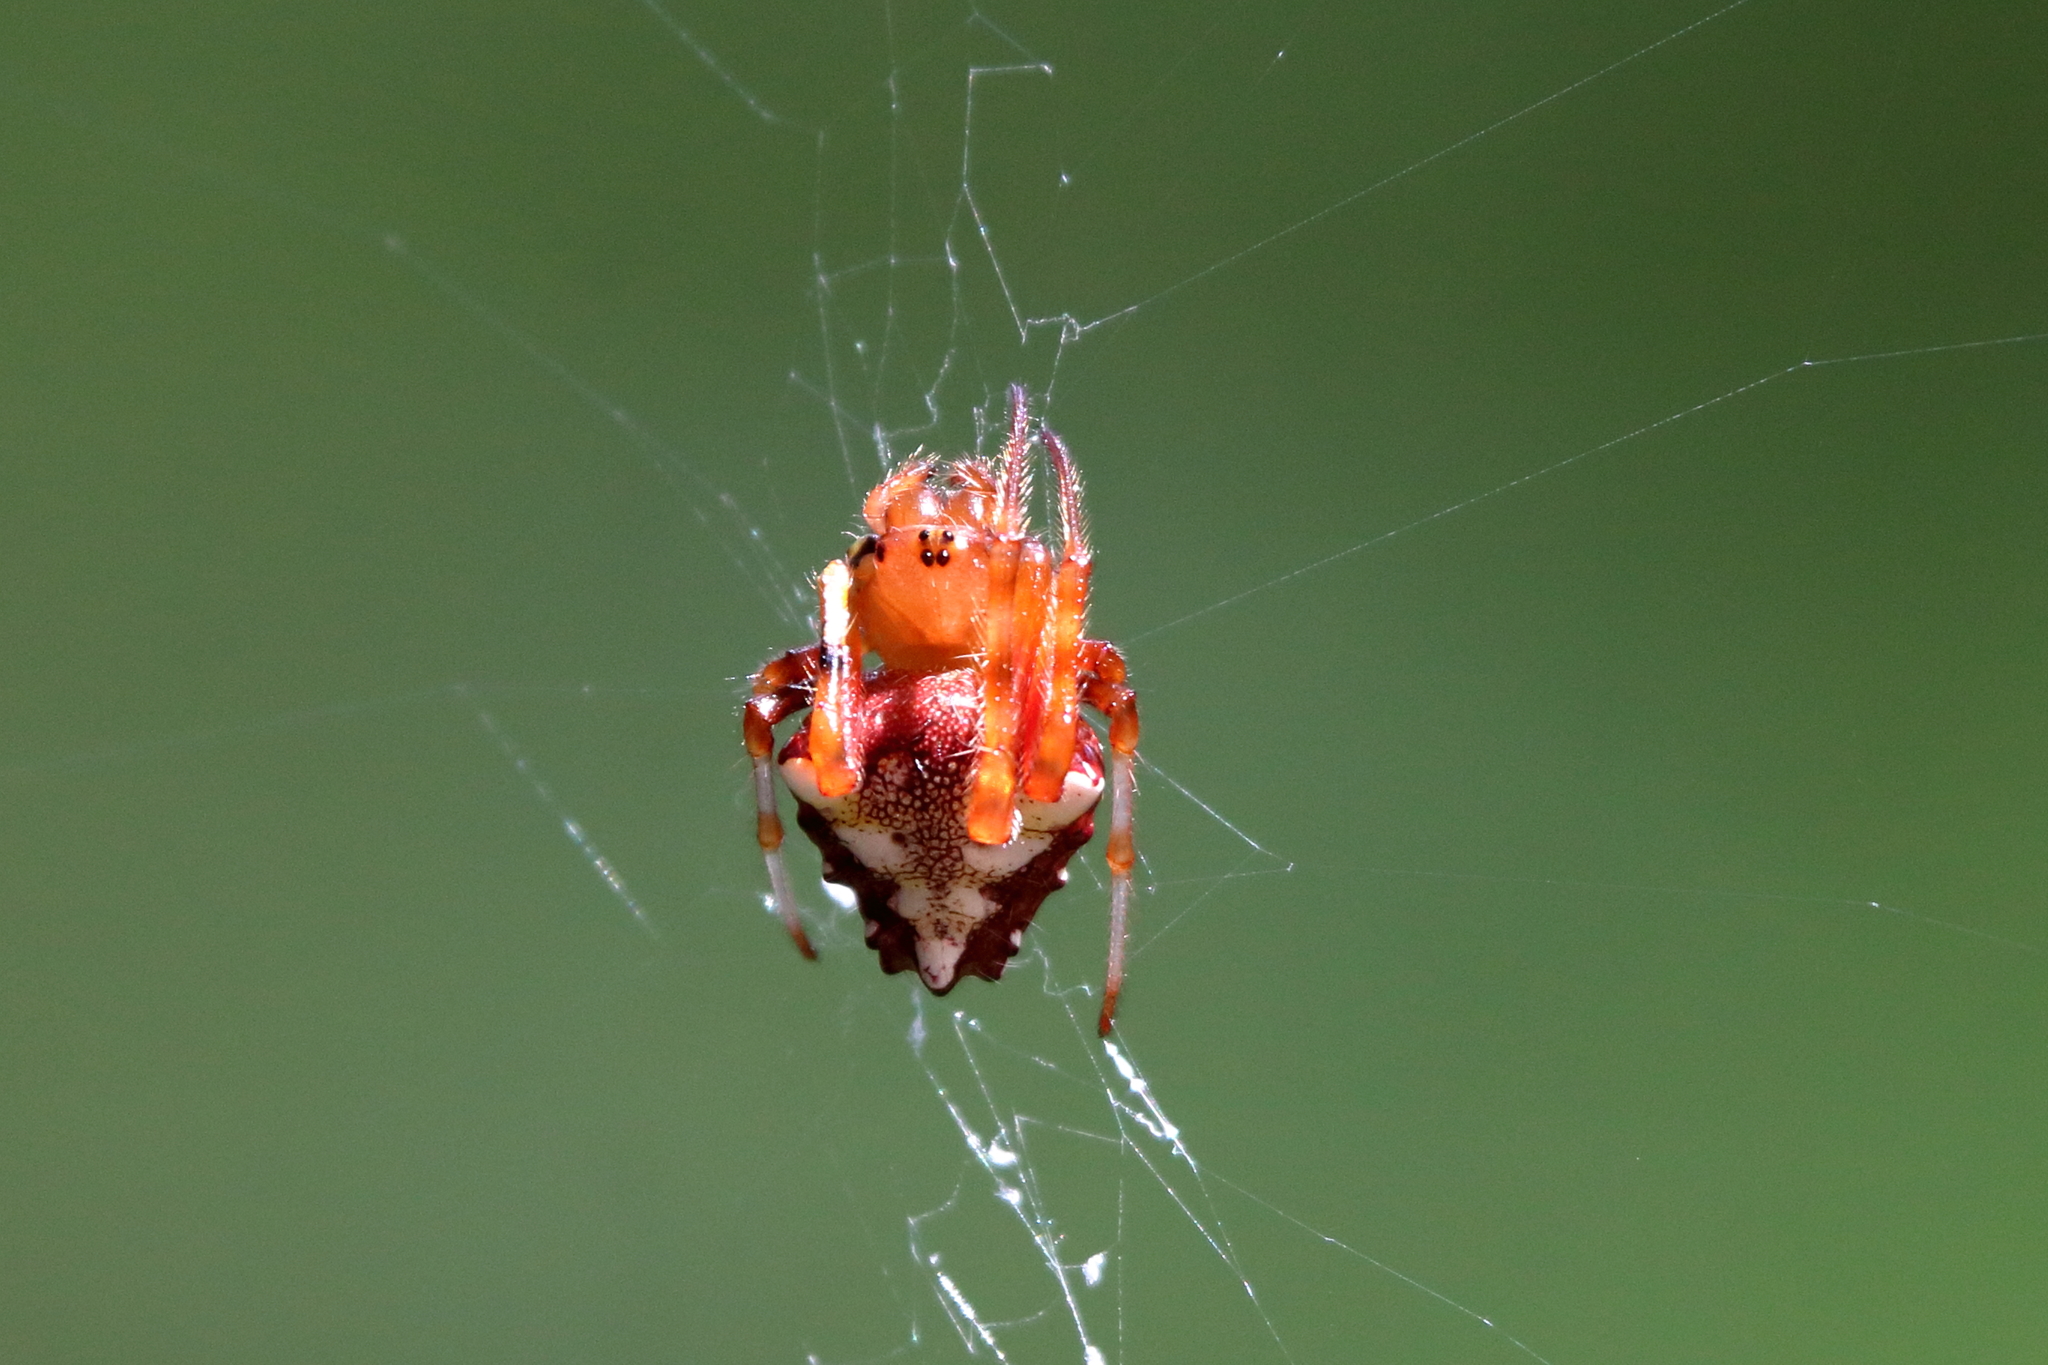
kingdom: Animalia
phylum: Arthropoda
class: Arachnida
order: Araneae
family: Araneidae
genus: Verrucosa
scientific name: Verrucosa arenata
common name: Orb weavers
